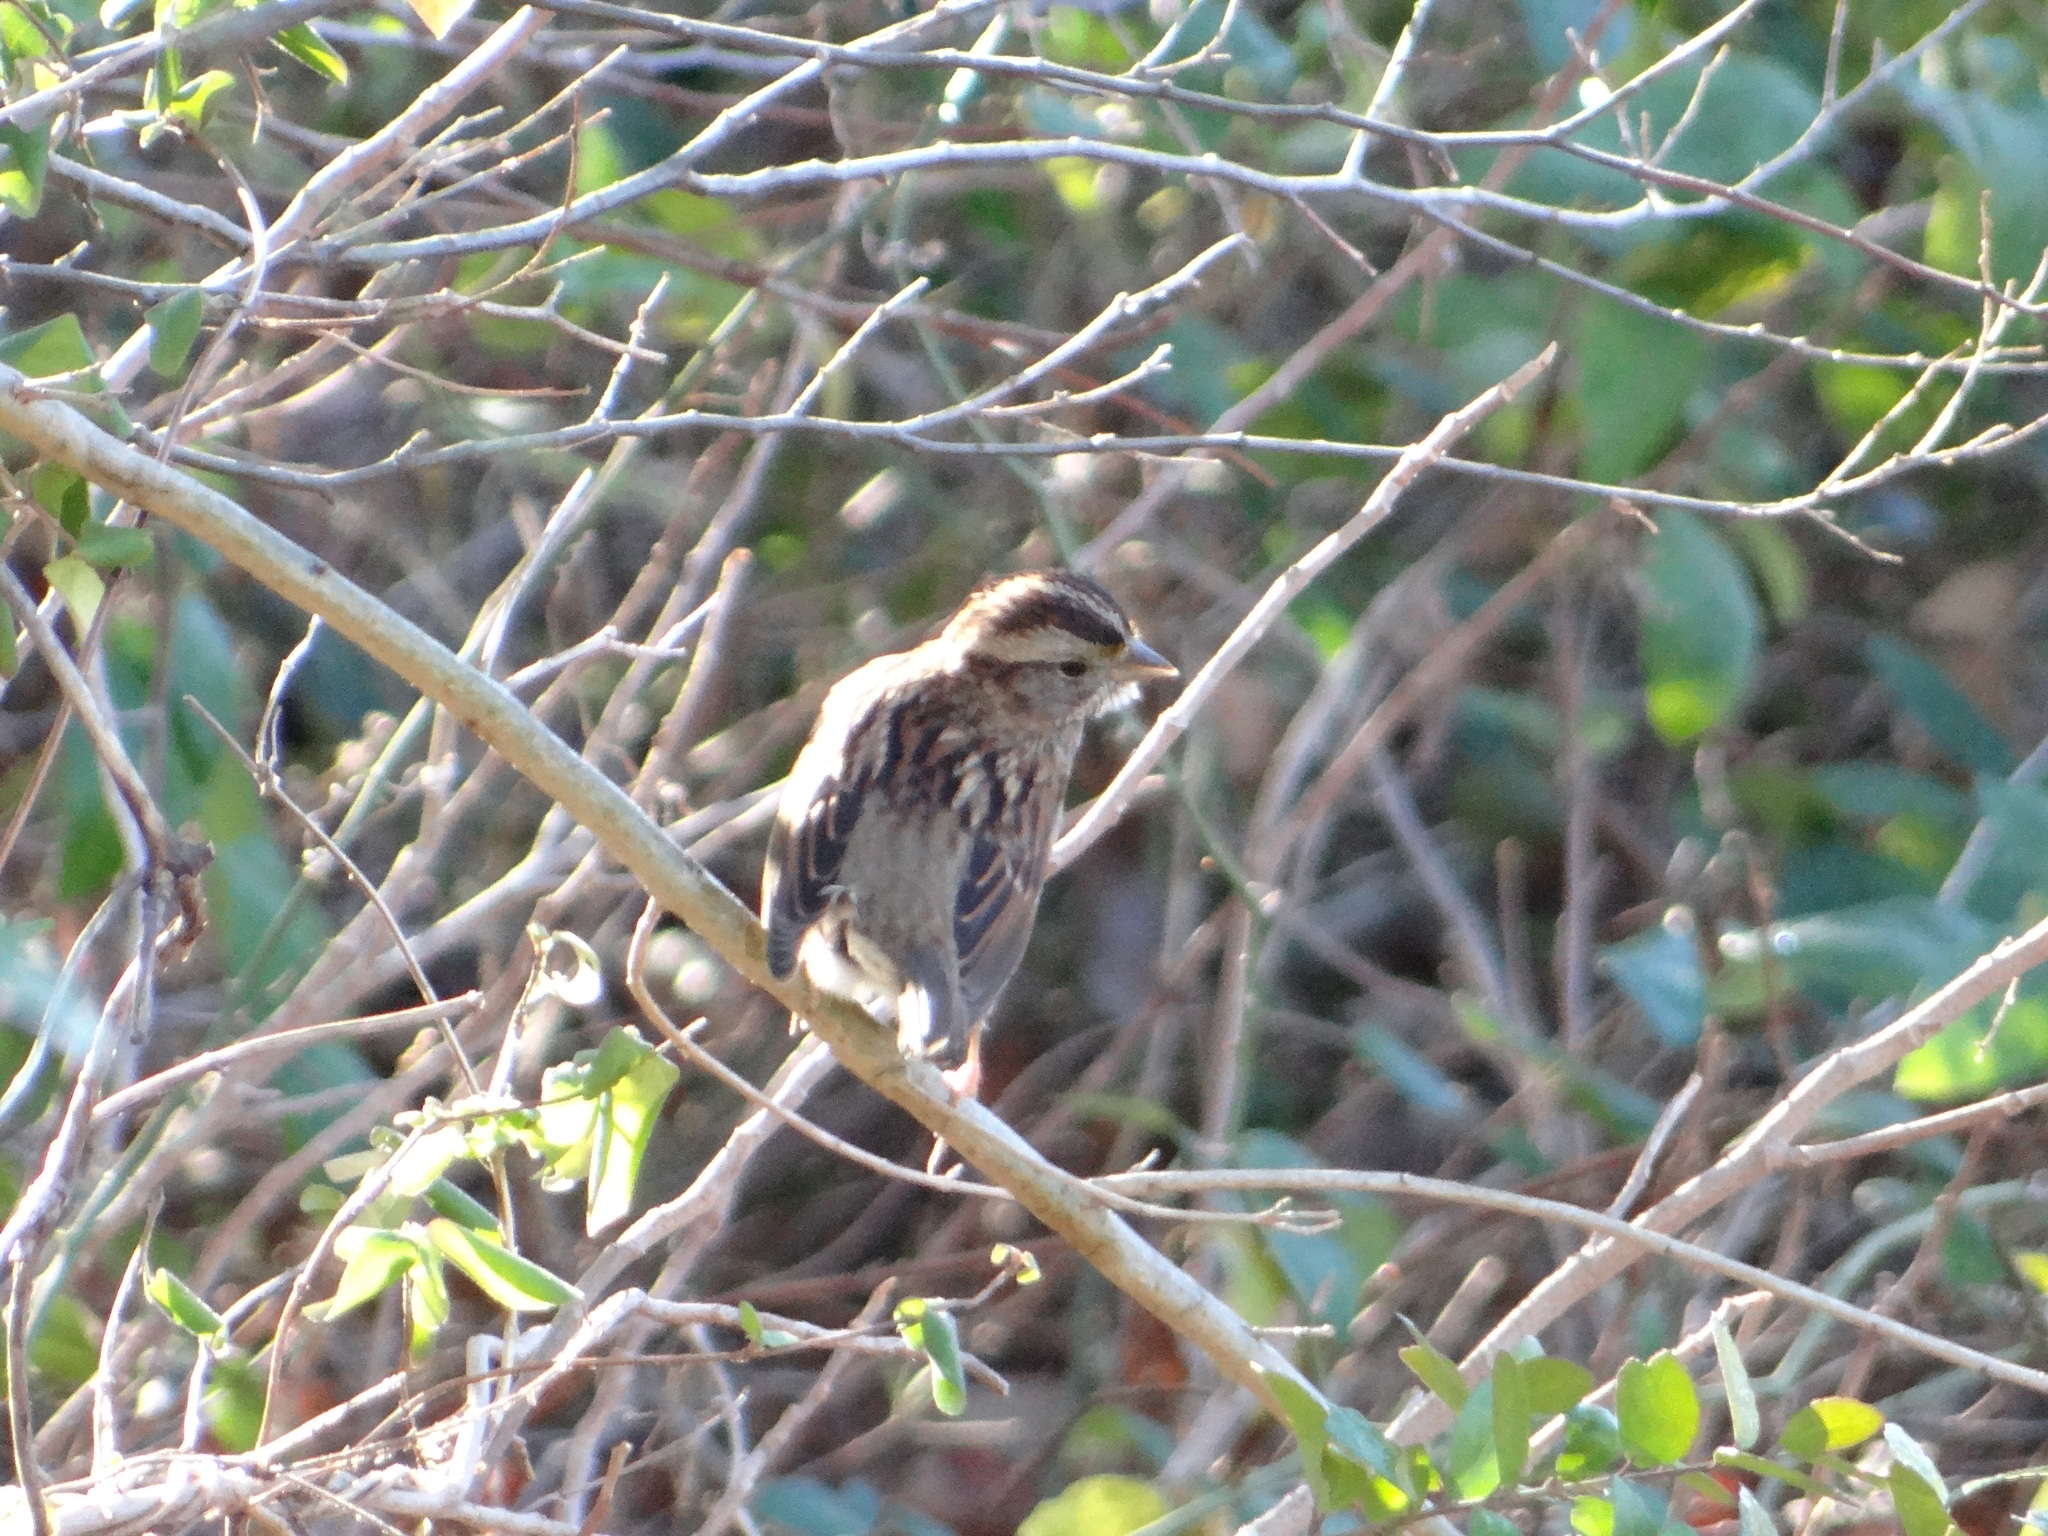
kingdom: Animalia
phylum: Chordata
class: Aves
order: Passeriformes
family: Passerellidae
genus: Zonotrichia
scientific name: Zonotrichia albicollis
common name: White-throated sparrow
